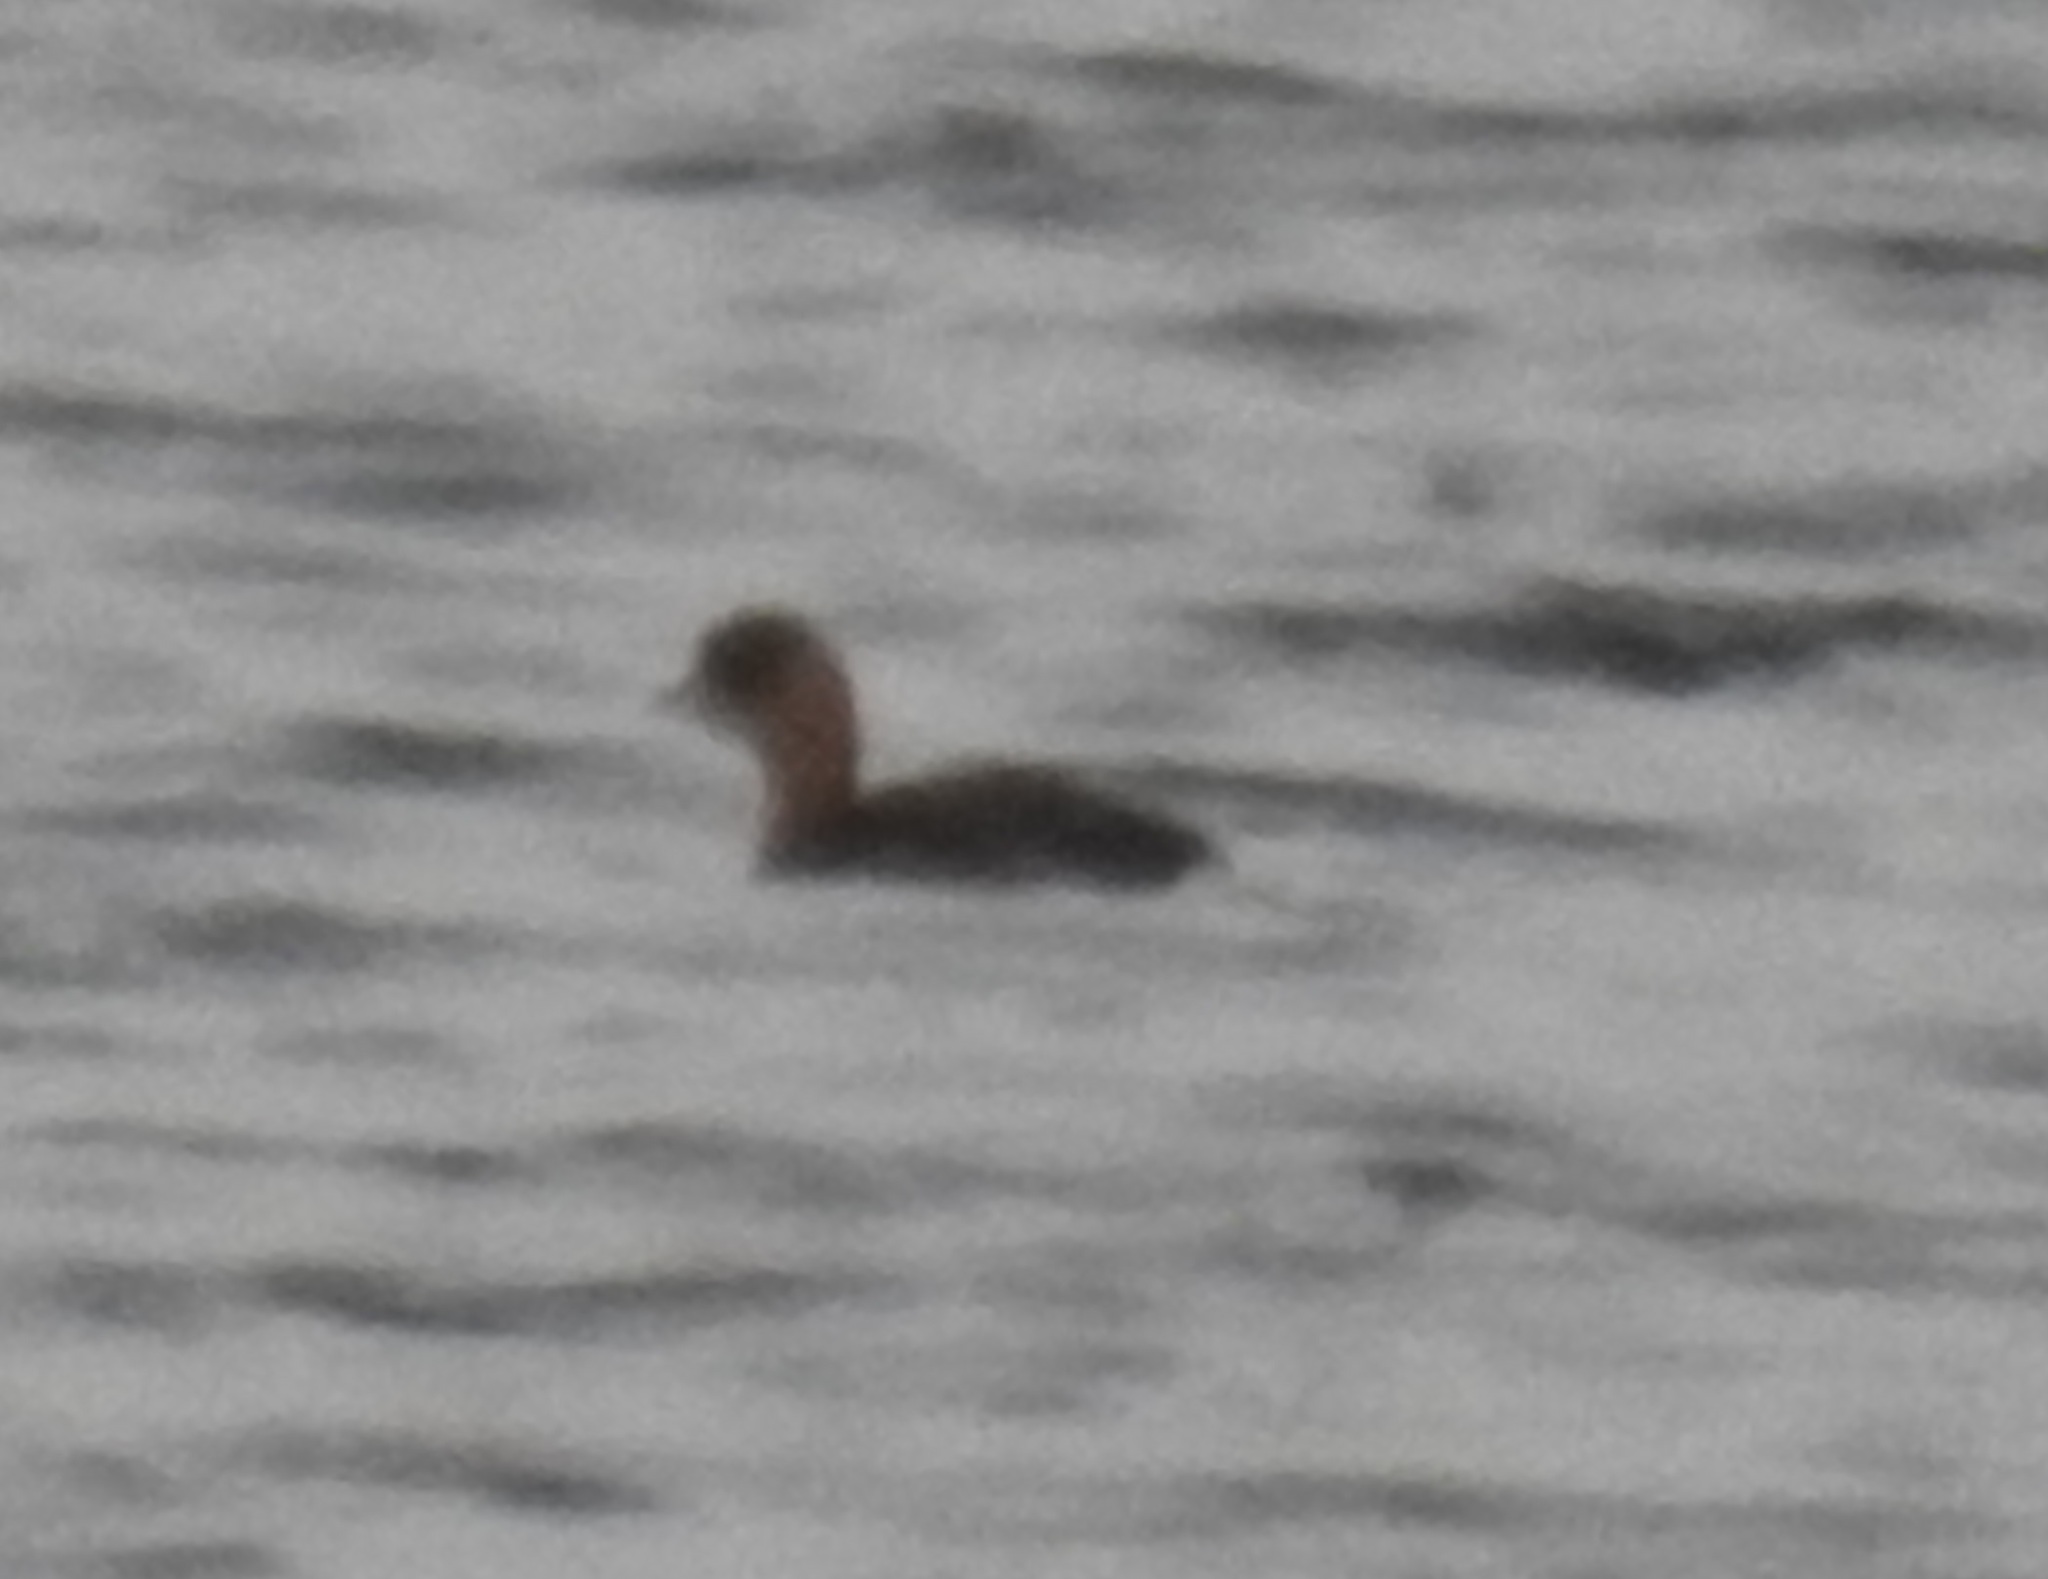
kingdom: Animalia
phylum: Chordata
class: Aves
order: Podicipediformes
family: Podicipedidae
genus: Tachybaptus
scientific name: Tachybaptus ruficollis
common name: Little grebe
